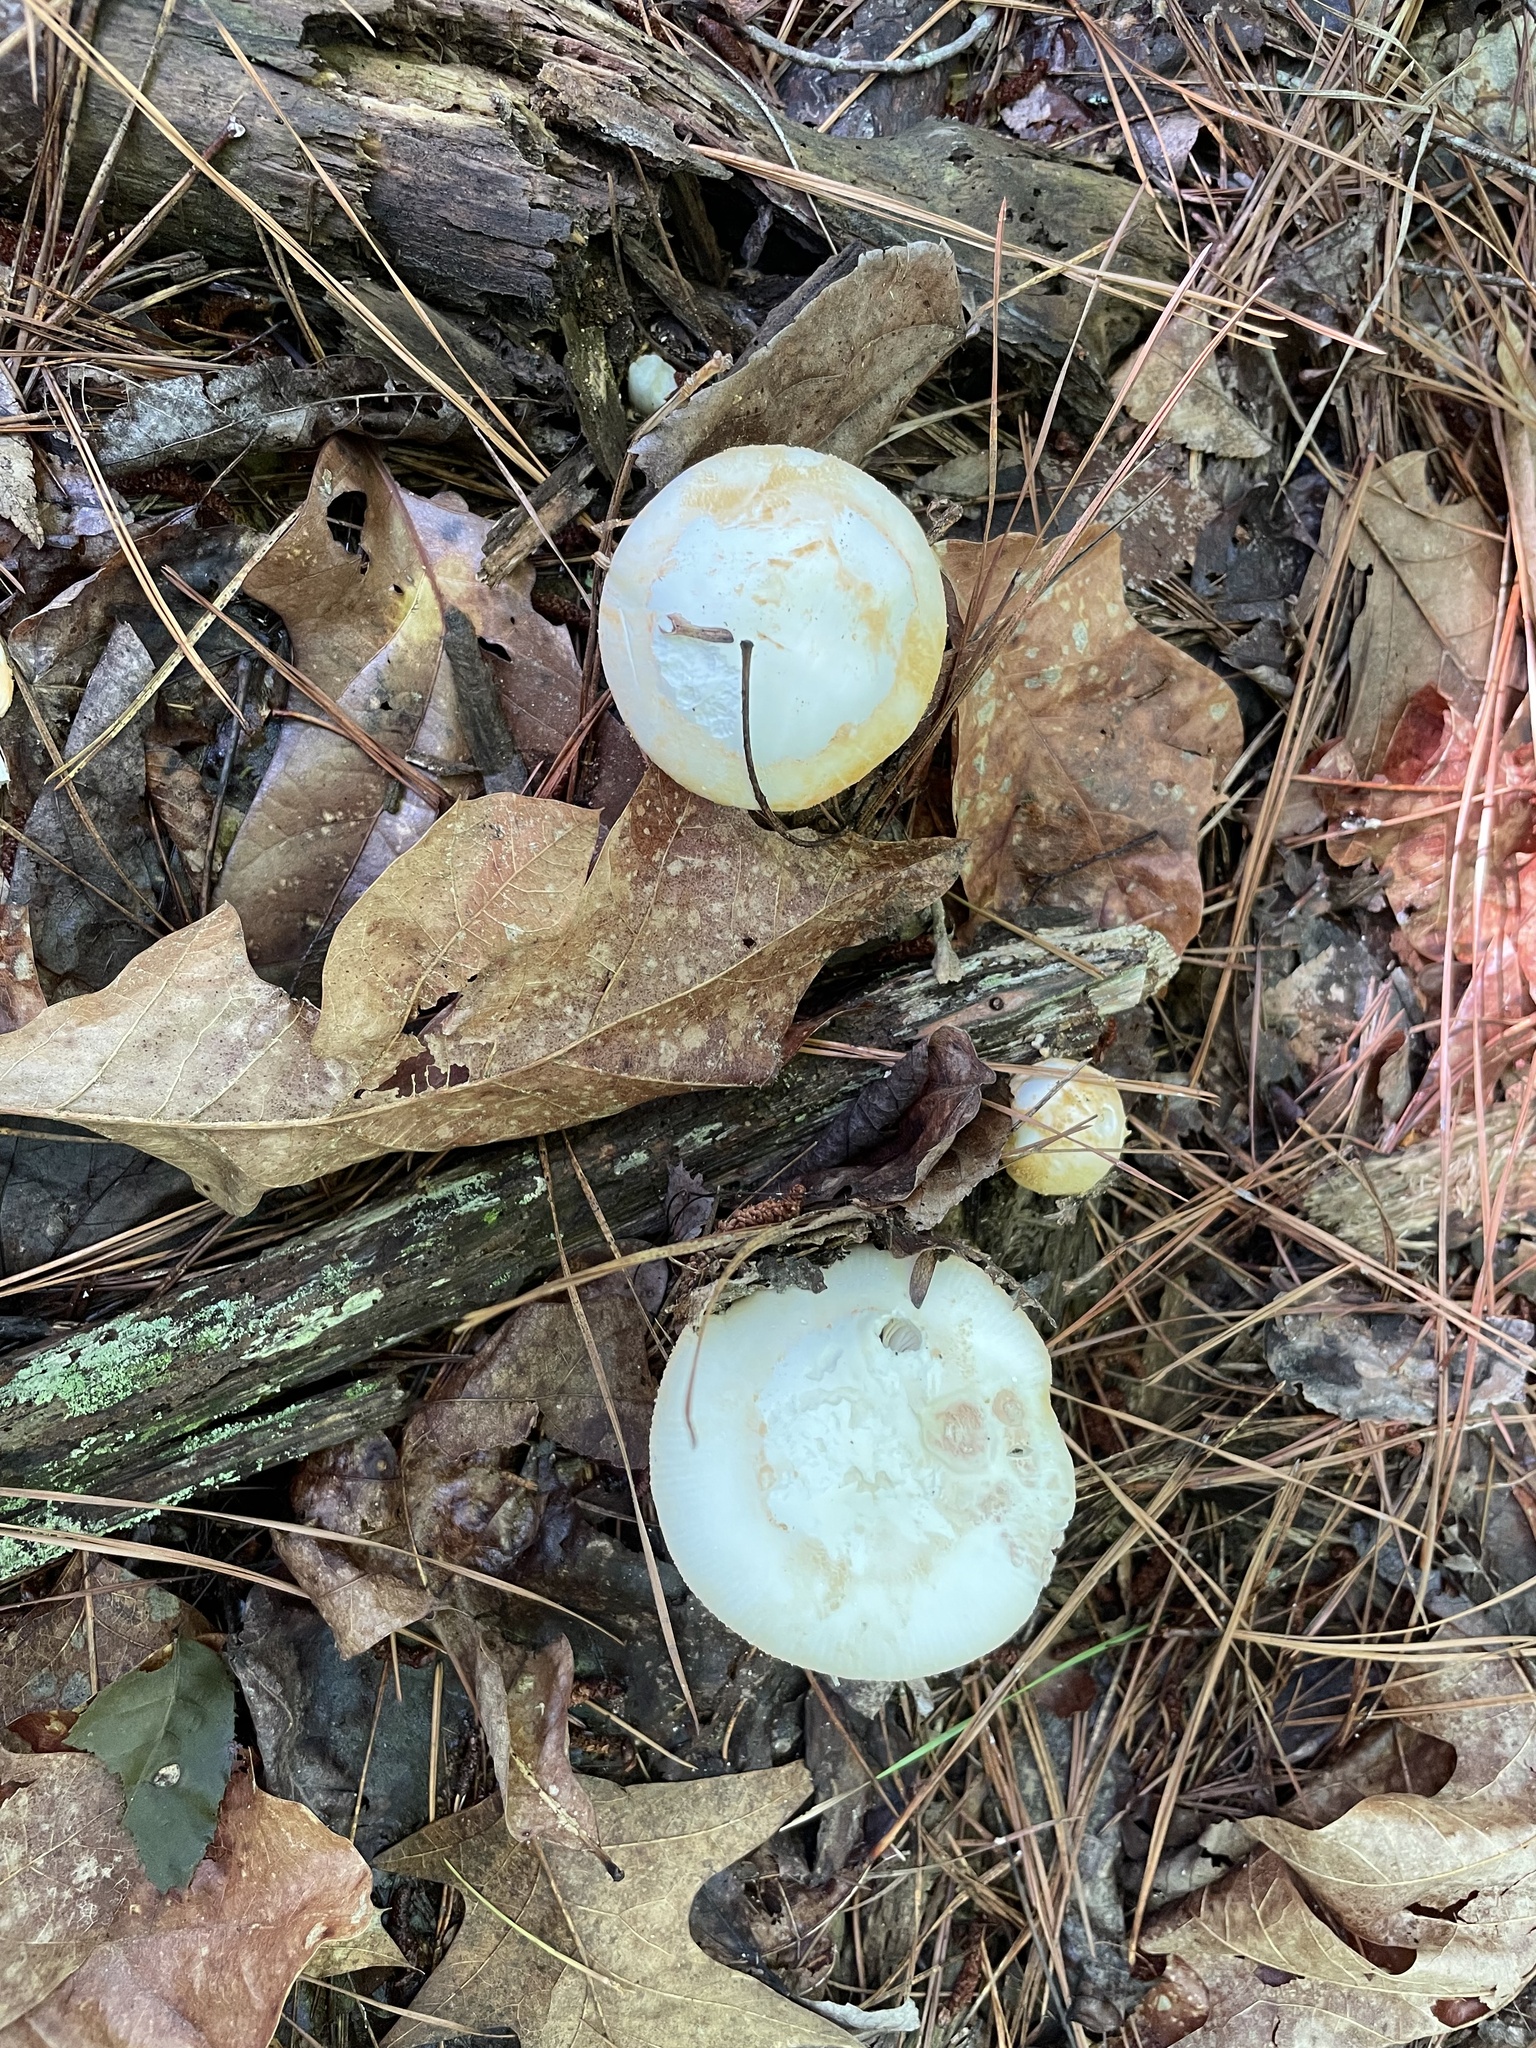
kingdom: Fungi
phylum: Basidiomycota
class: Agaricomycetes
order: Agaricales
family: Amanitaceae
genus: Amanita
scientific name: Amanita roseotincta
